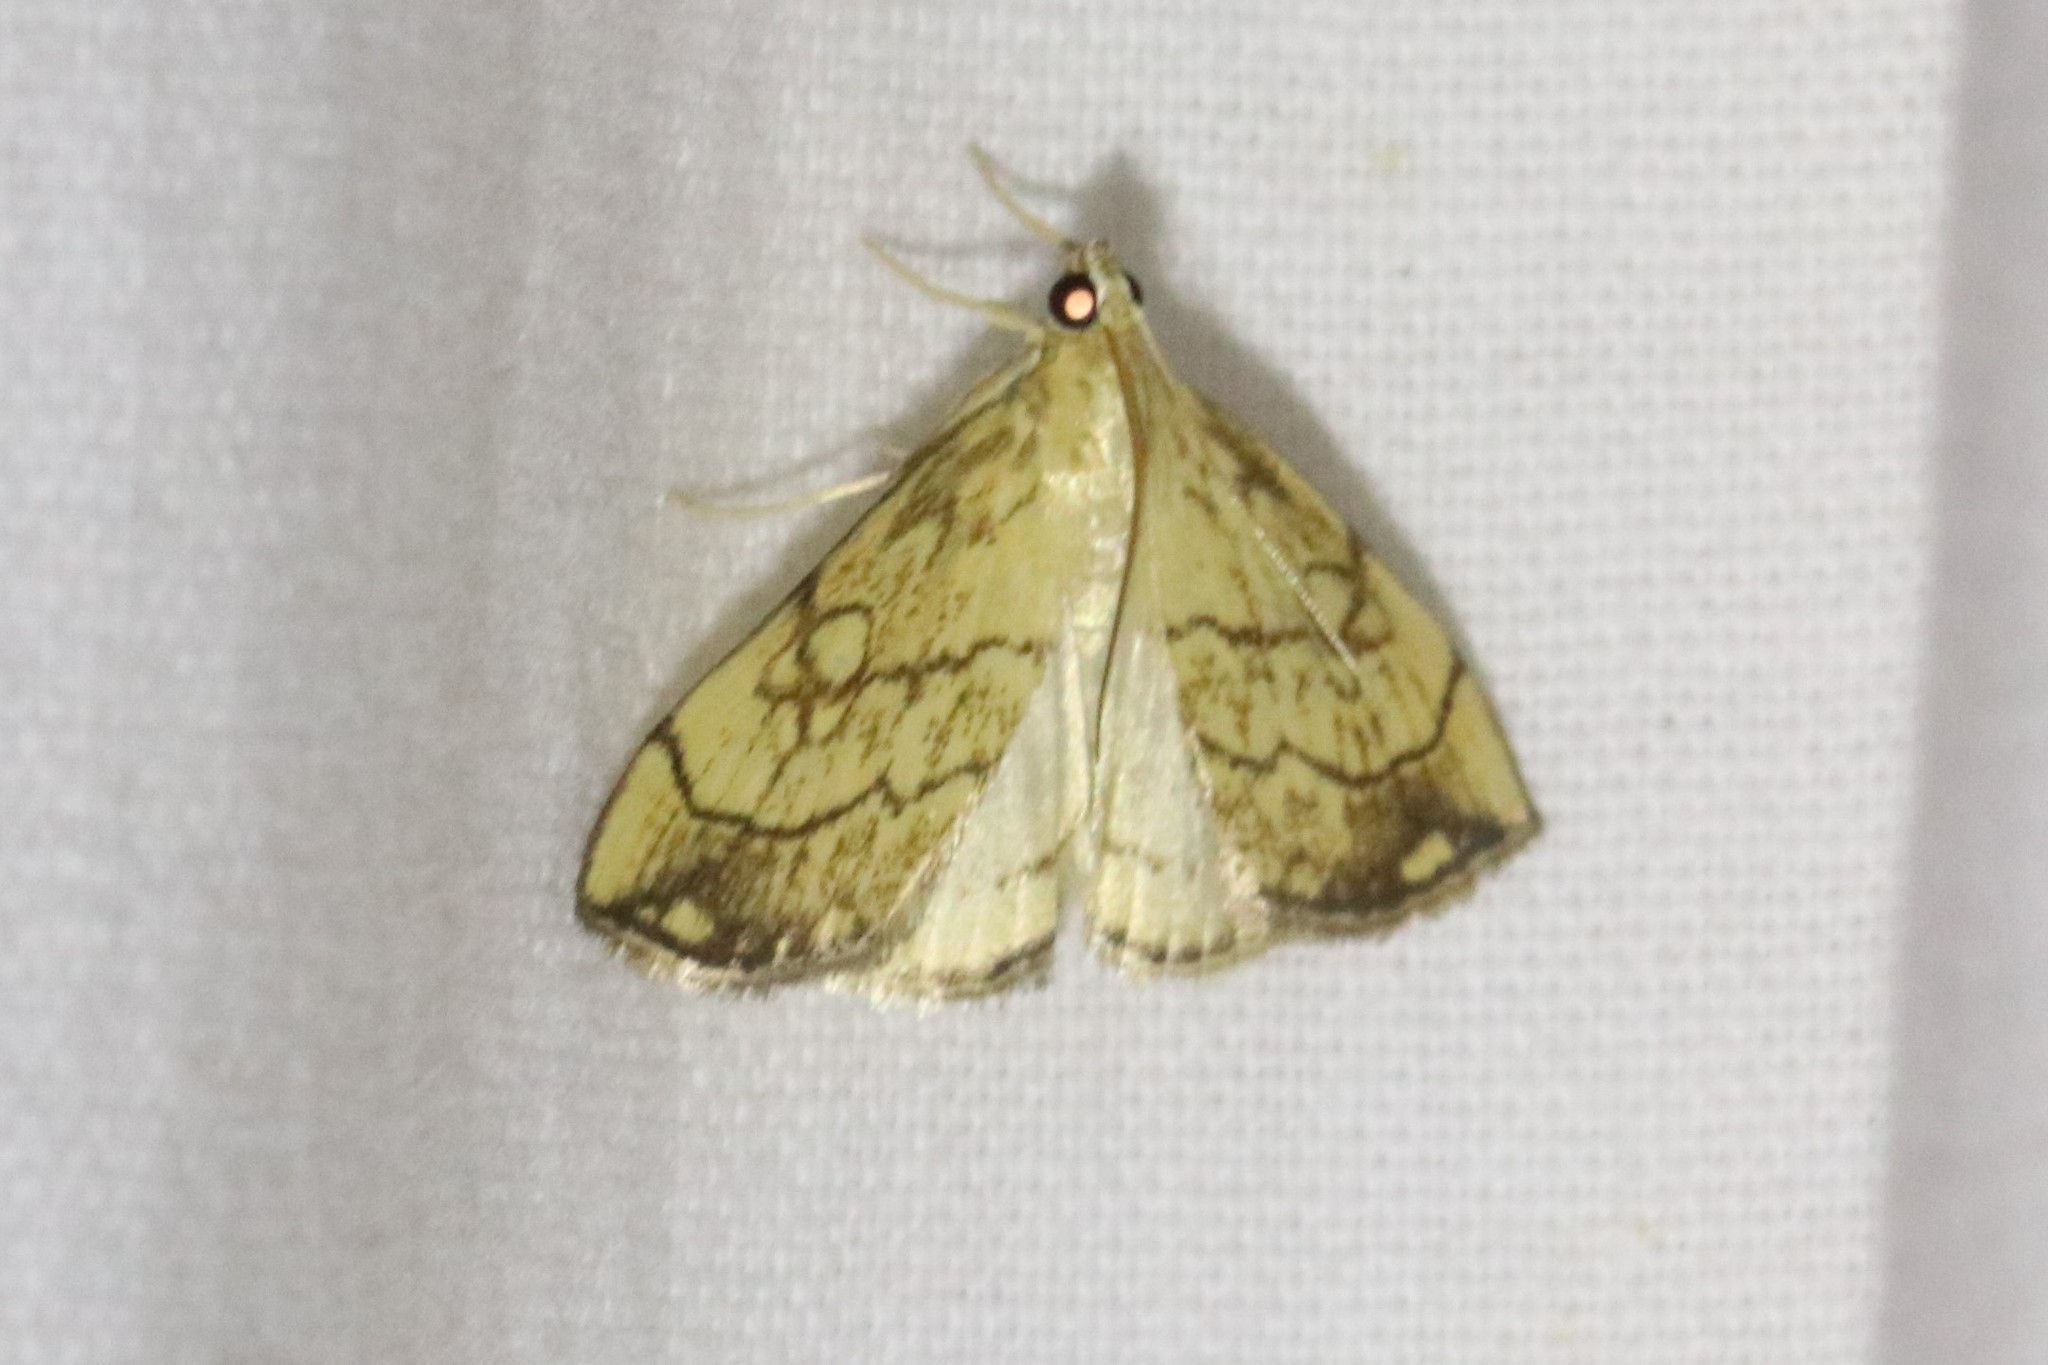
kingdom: Animalia
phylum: Arthropoda
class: Insecta
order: Lepidoptera
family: Crambidae
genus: Evergestis
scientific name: Evergestis pallidata
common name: Chequered pearl
